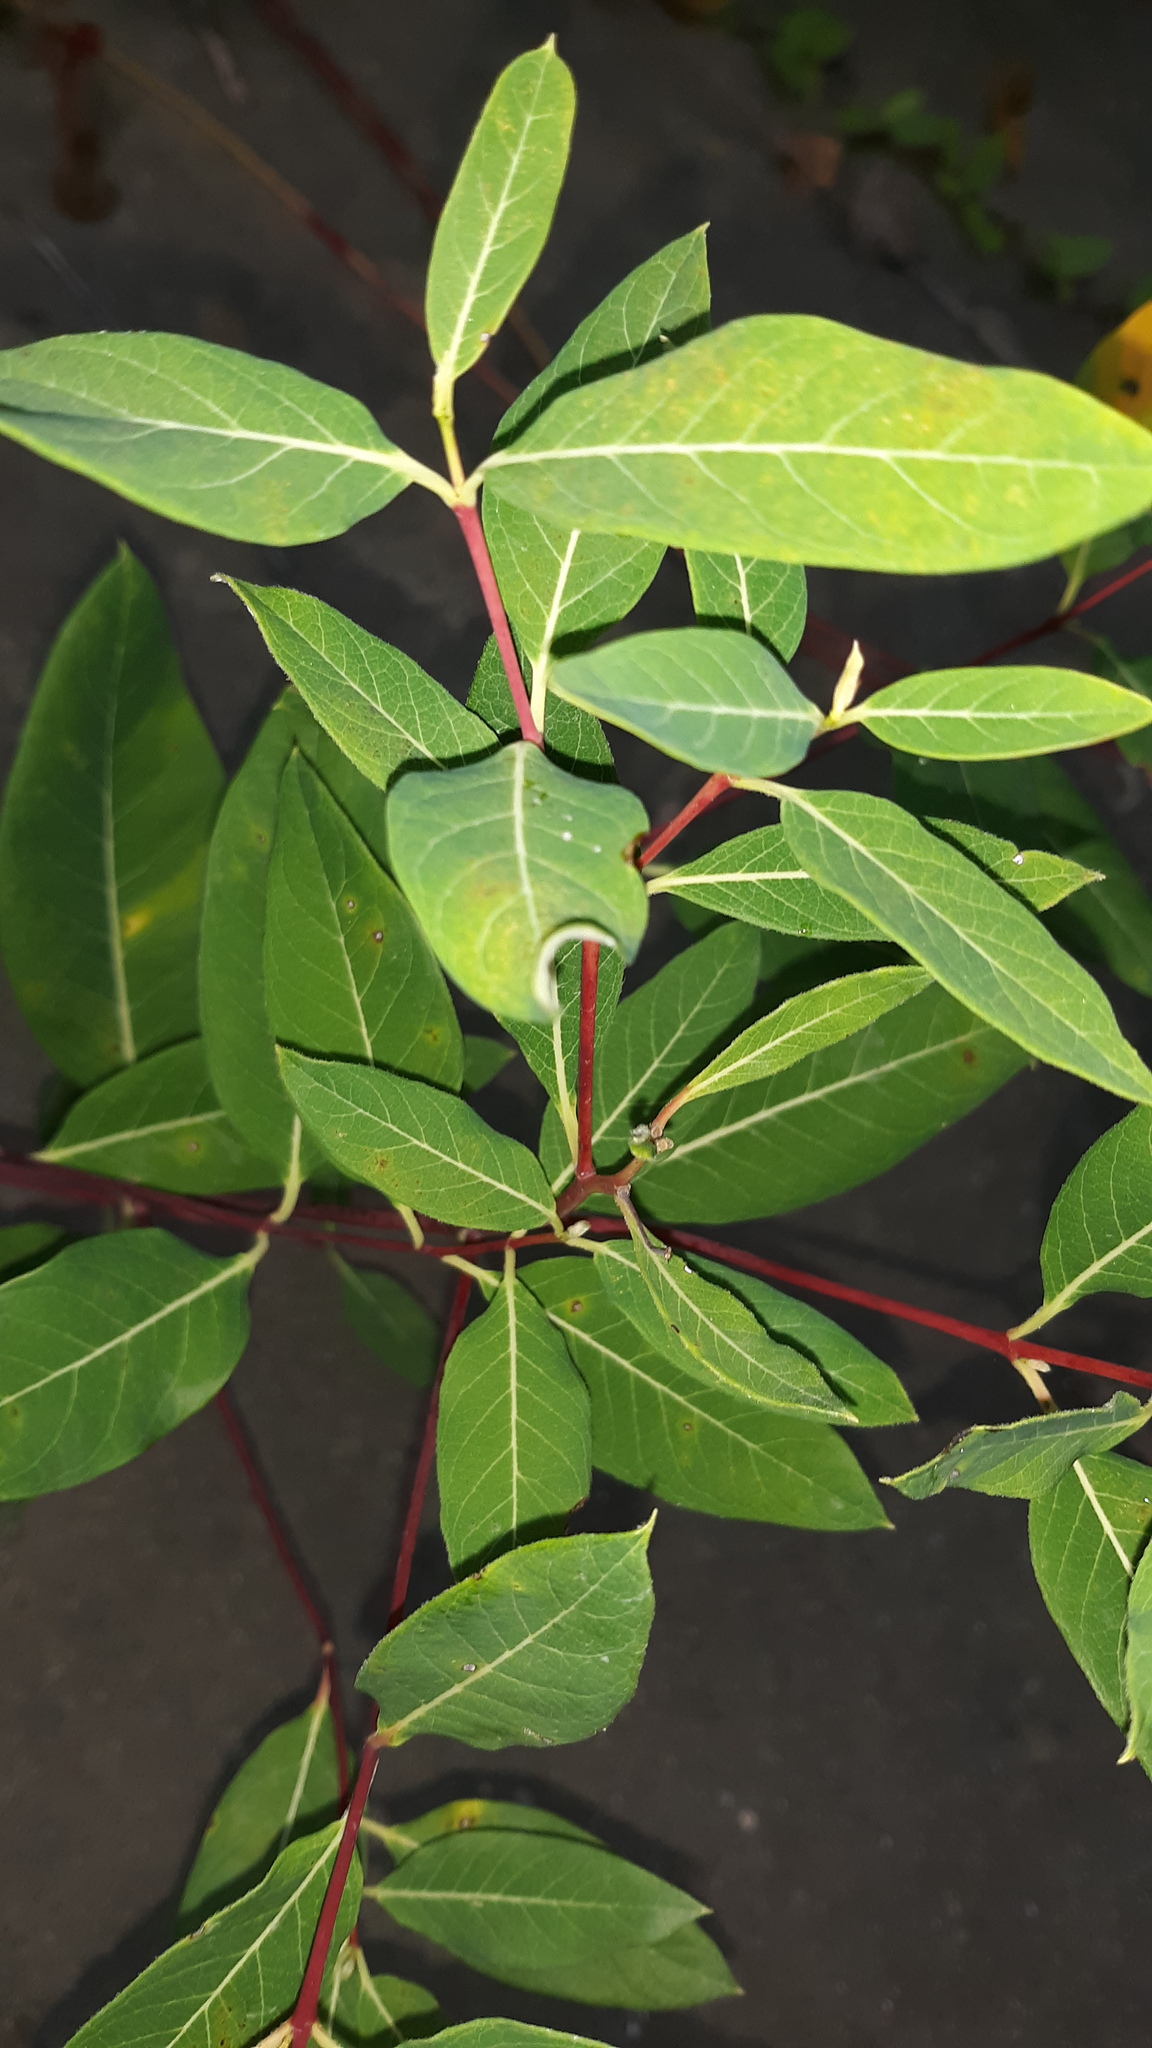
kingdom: Plantae
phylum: Tracheophyta
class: Magnoliopsida
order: Gentianales
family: Apocynaceae
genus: Apocynum
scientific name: Apocynum cannabinum
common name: Hemp dogbane
